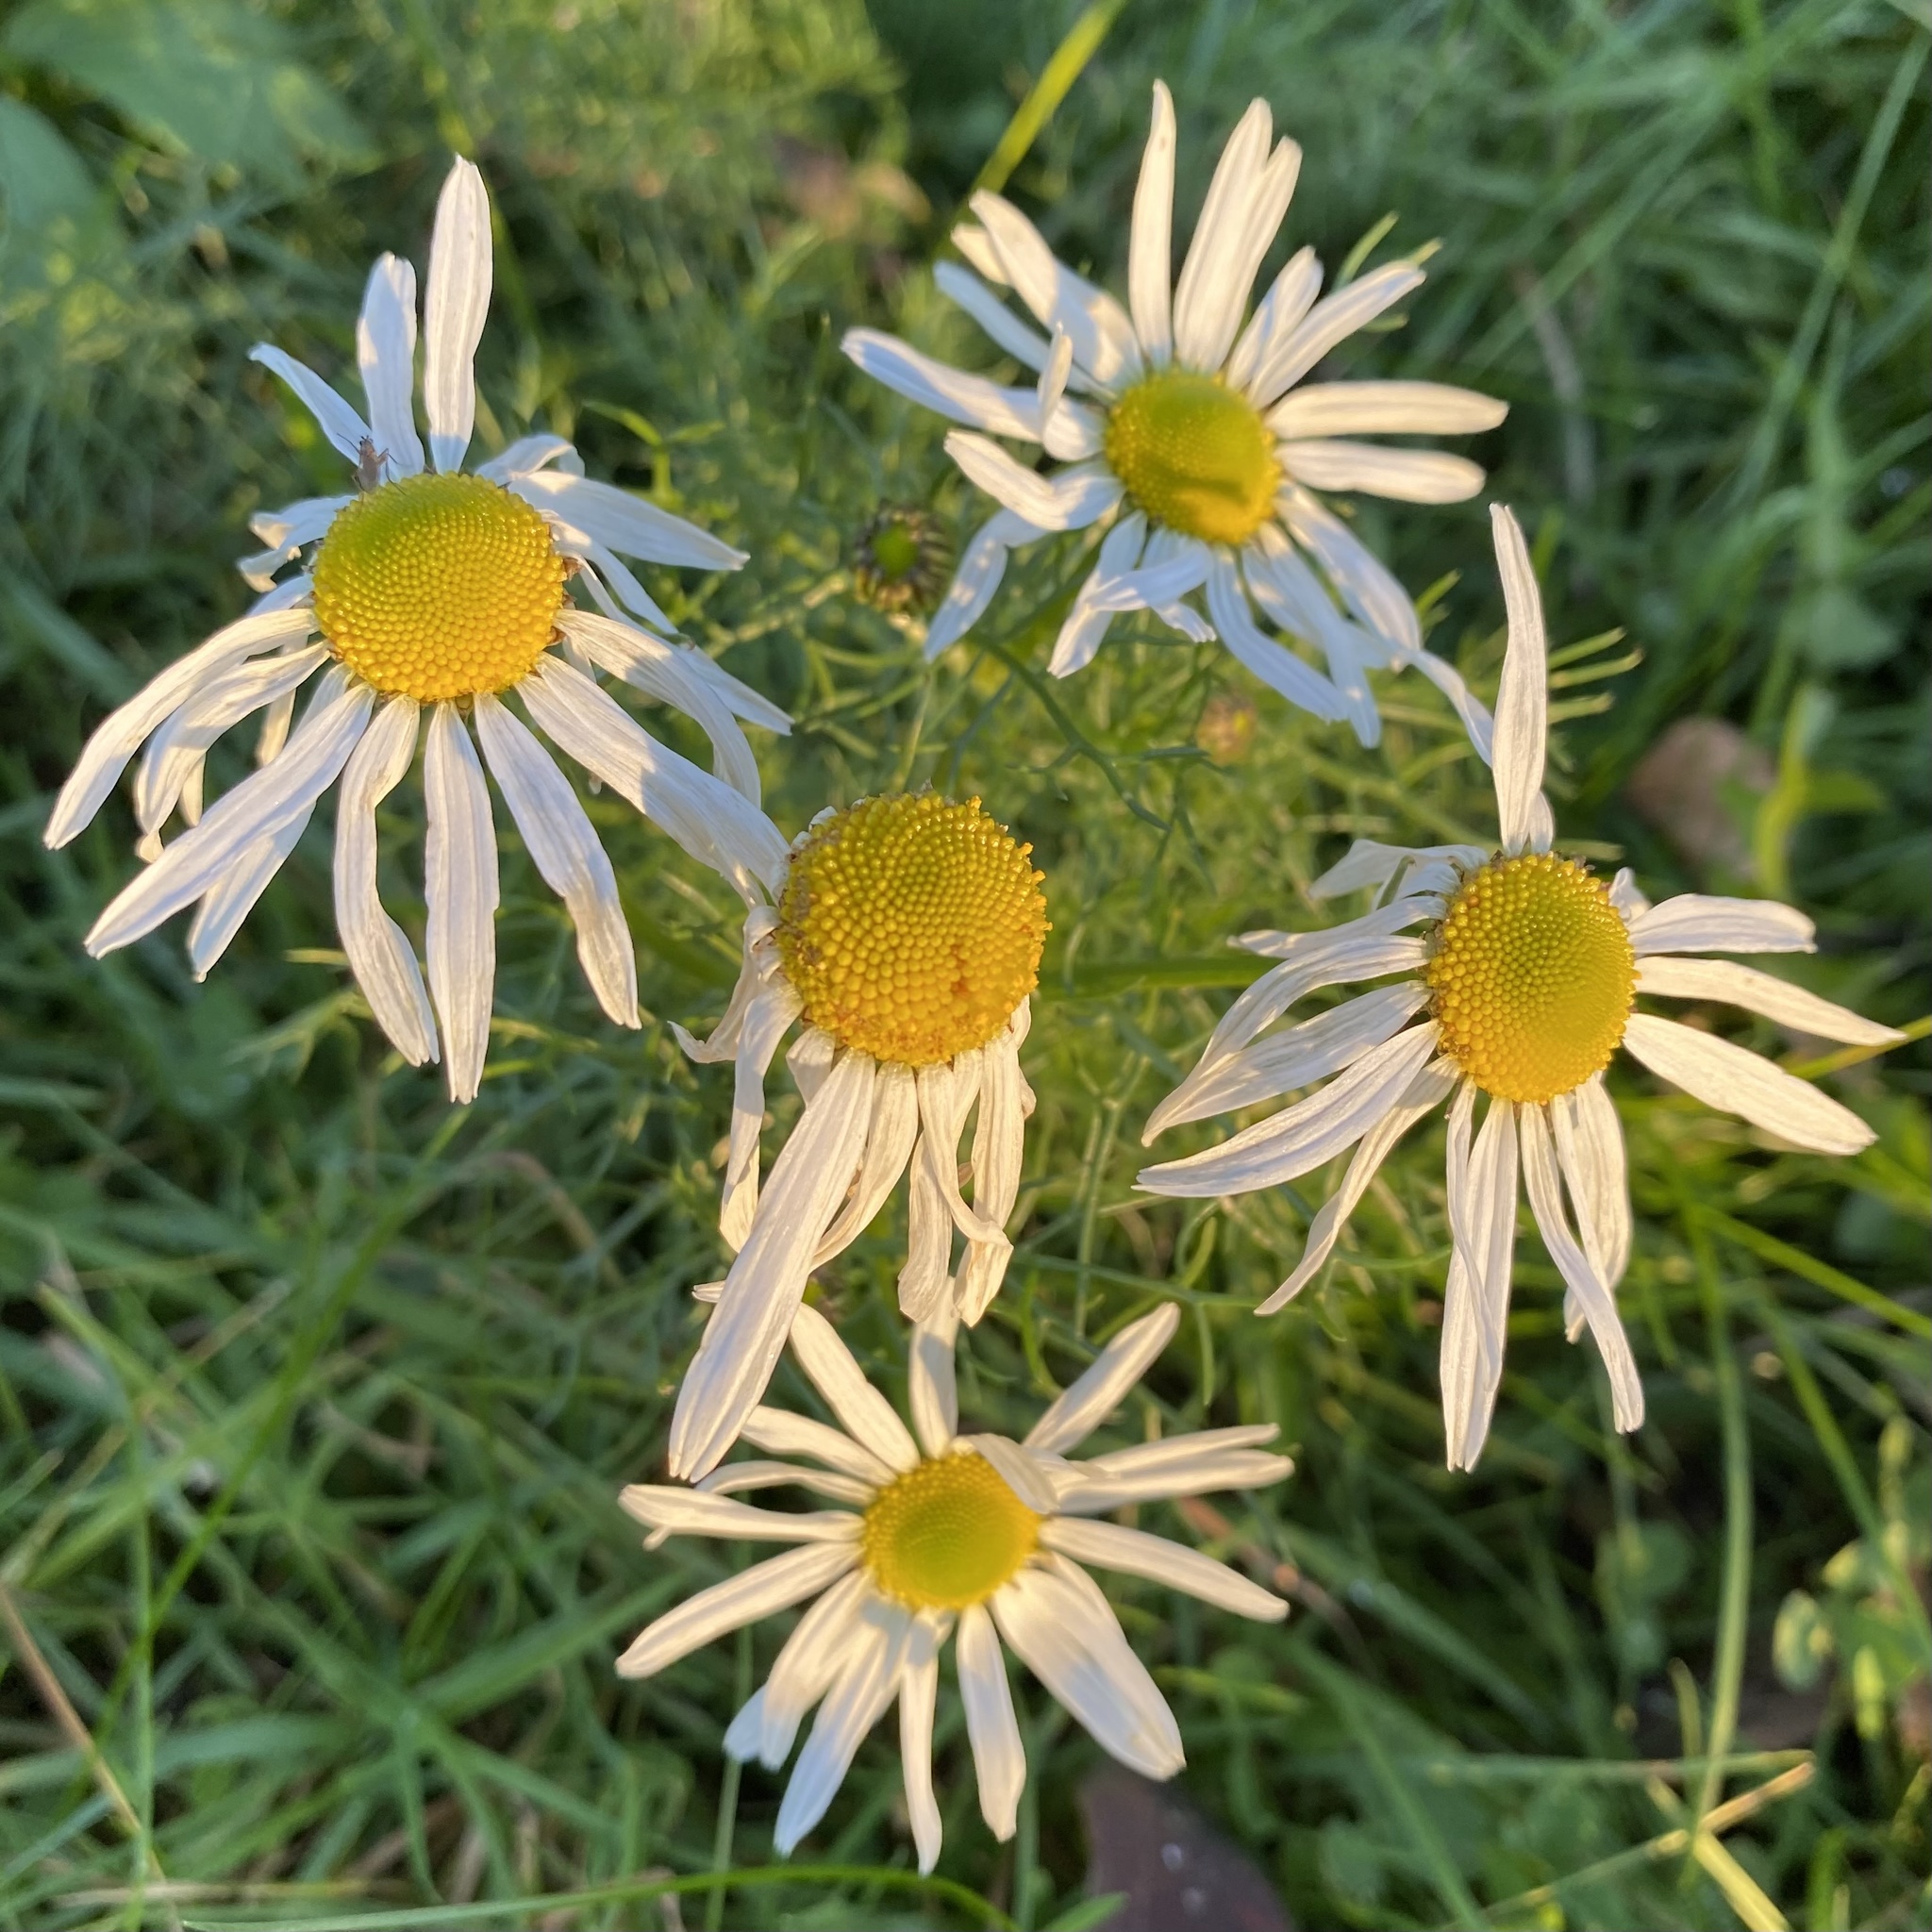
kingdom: Plantae
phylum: Tracheophyta
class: Magnoliopsida
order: Asterales
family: Asteraceae
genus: Tripleurospermum
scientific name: Tripleurospermum inodorum
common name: Scentless mayweed
